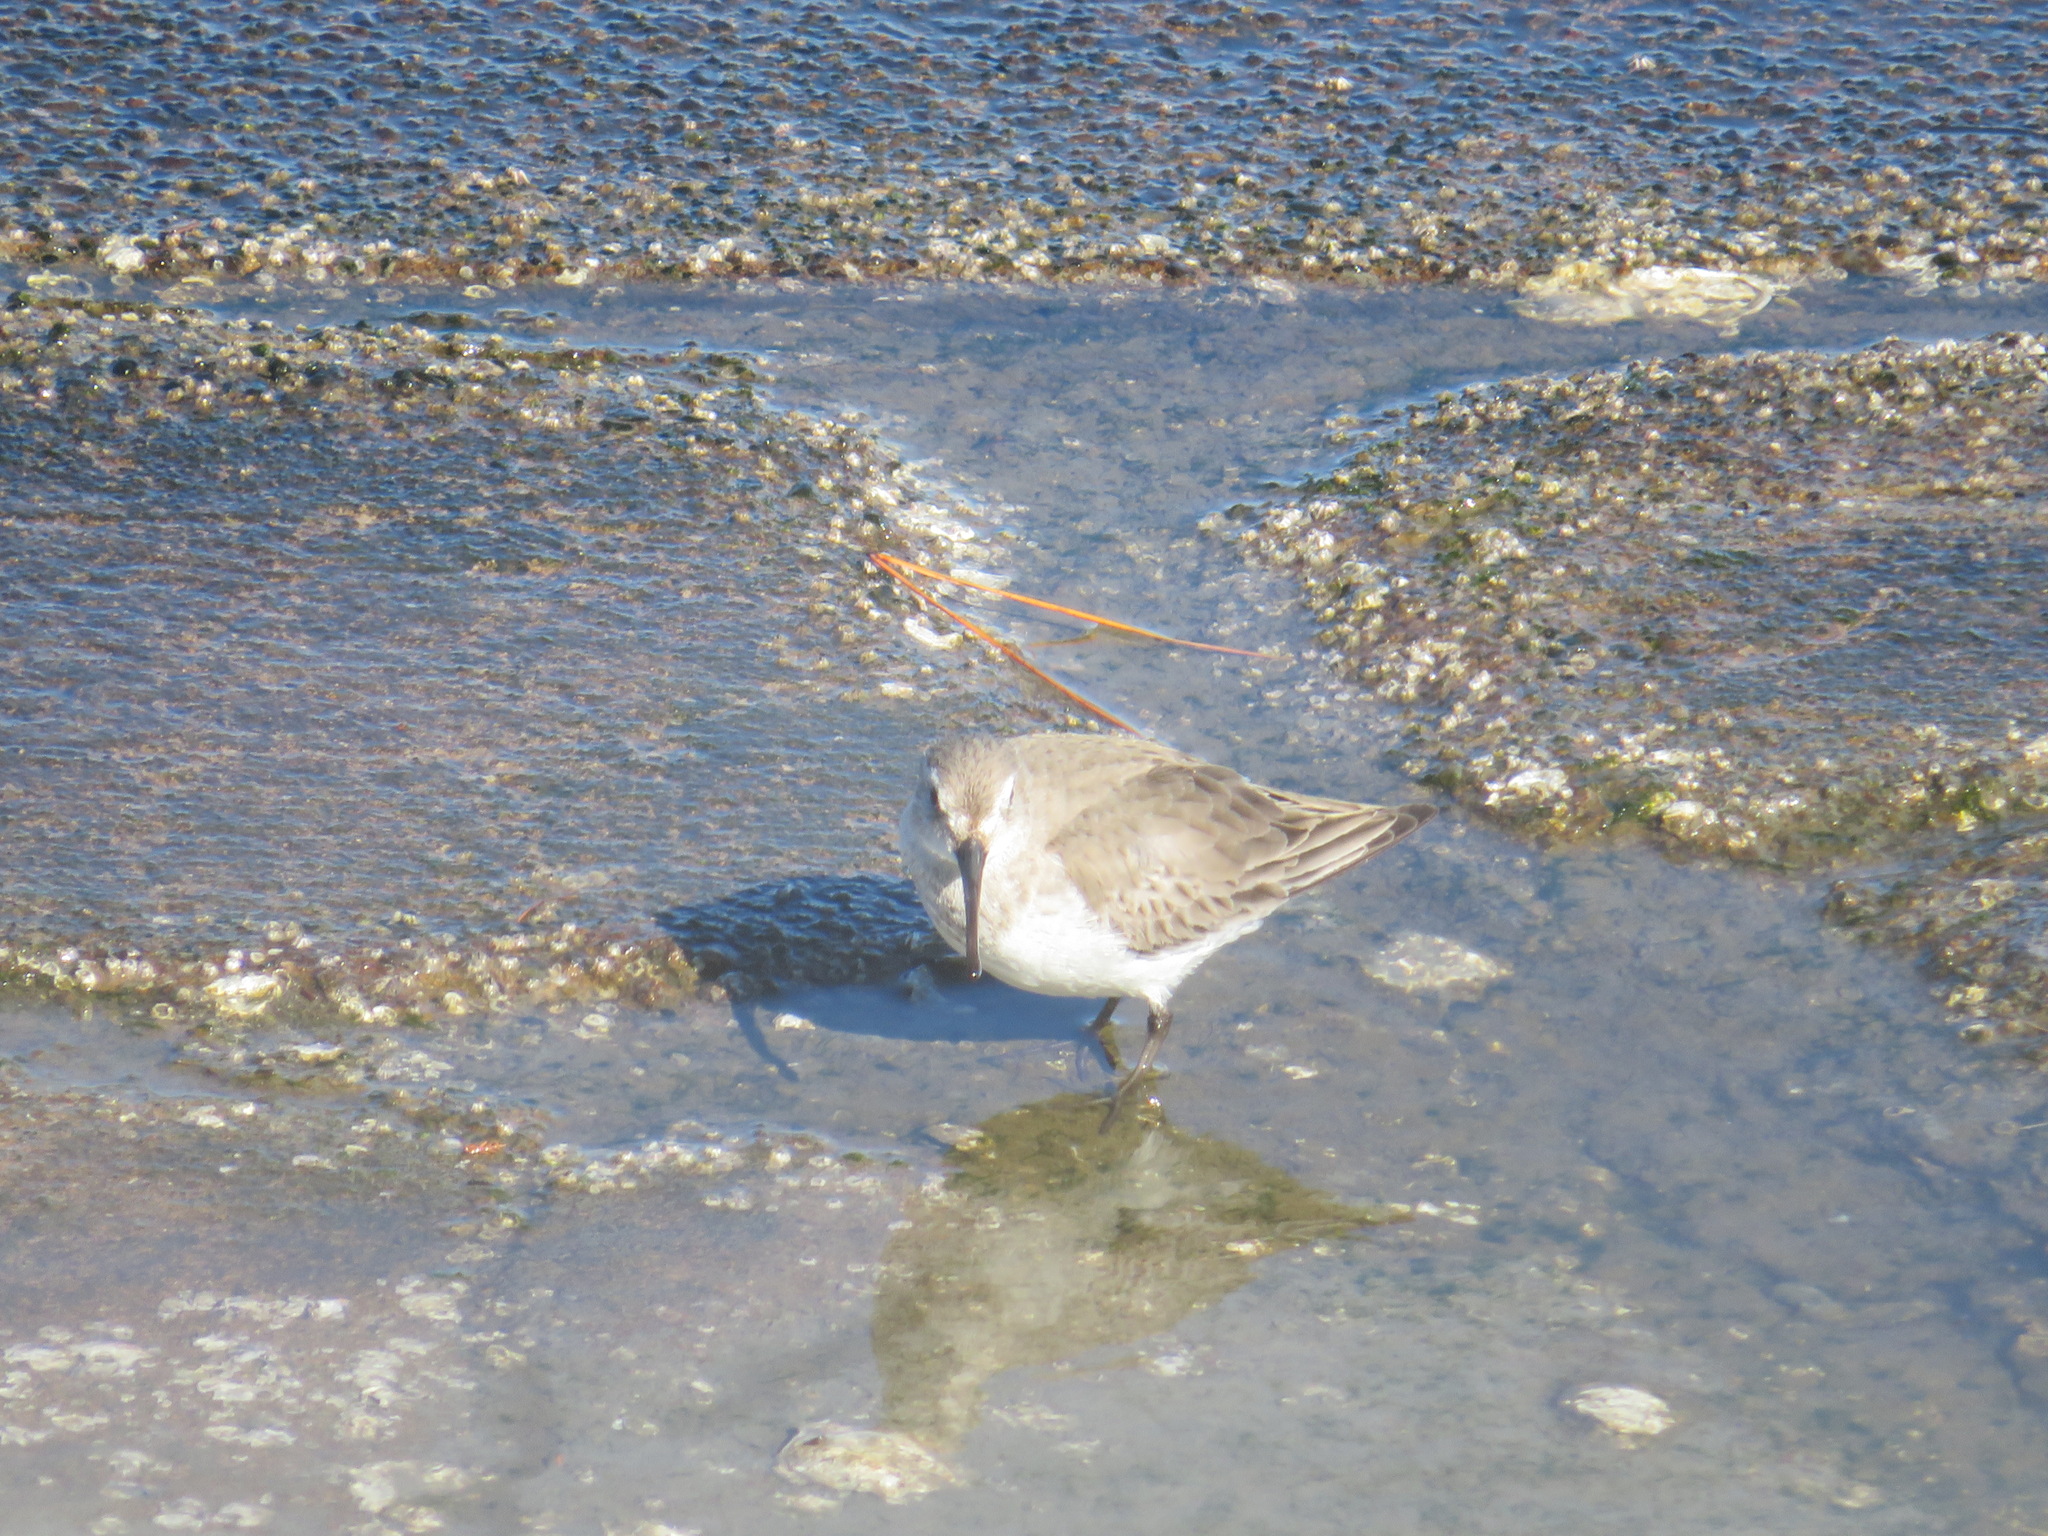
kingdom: Animalia
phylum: Chordata
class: Aves
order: Charadriiformes
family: Scolopacidae
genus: Calidris
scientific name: Calidris alpina
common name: Dunlin
